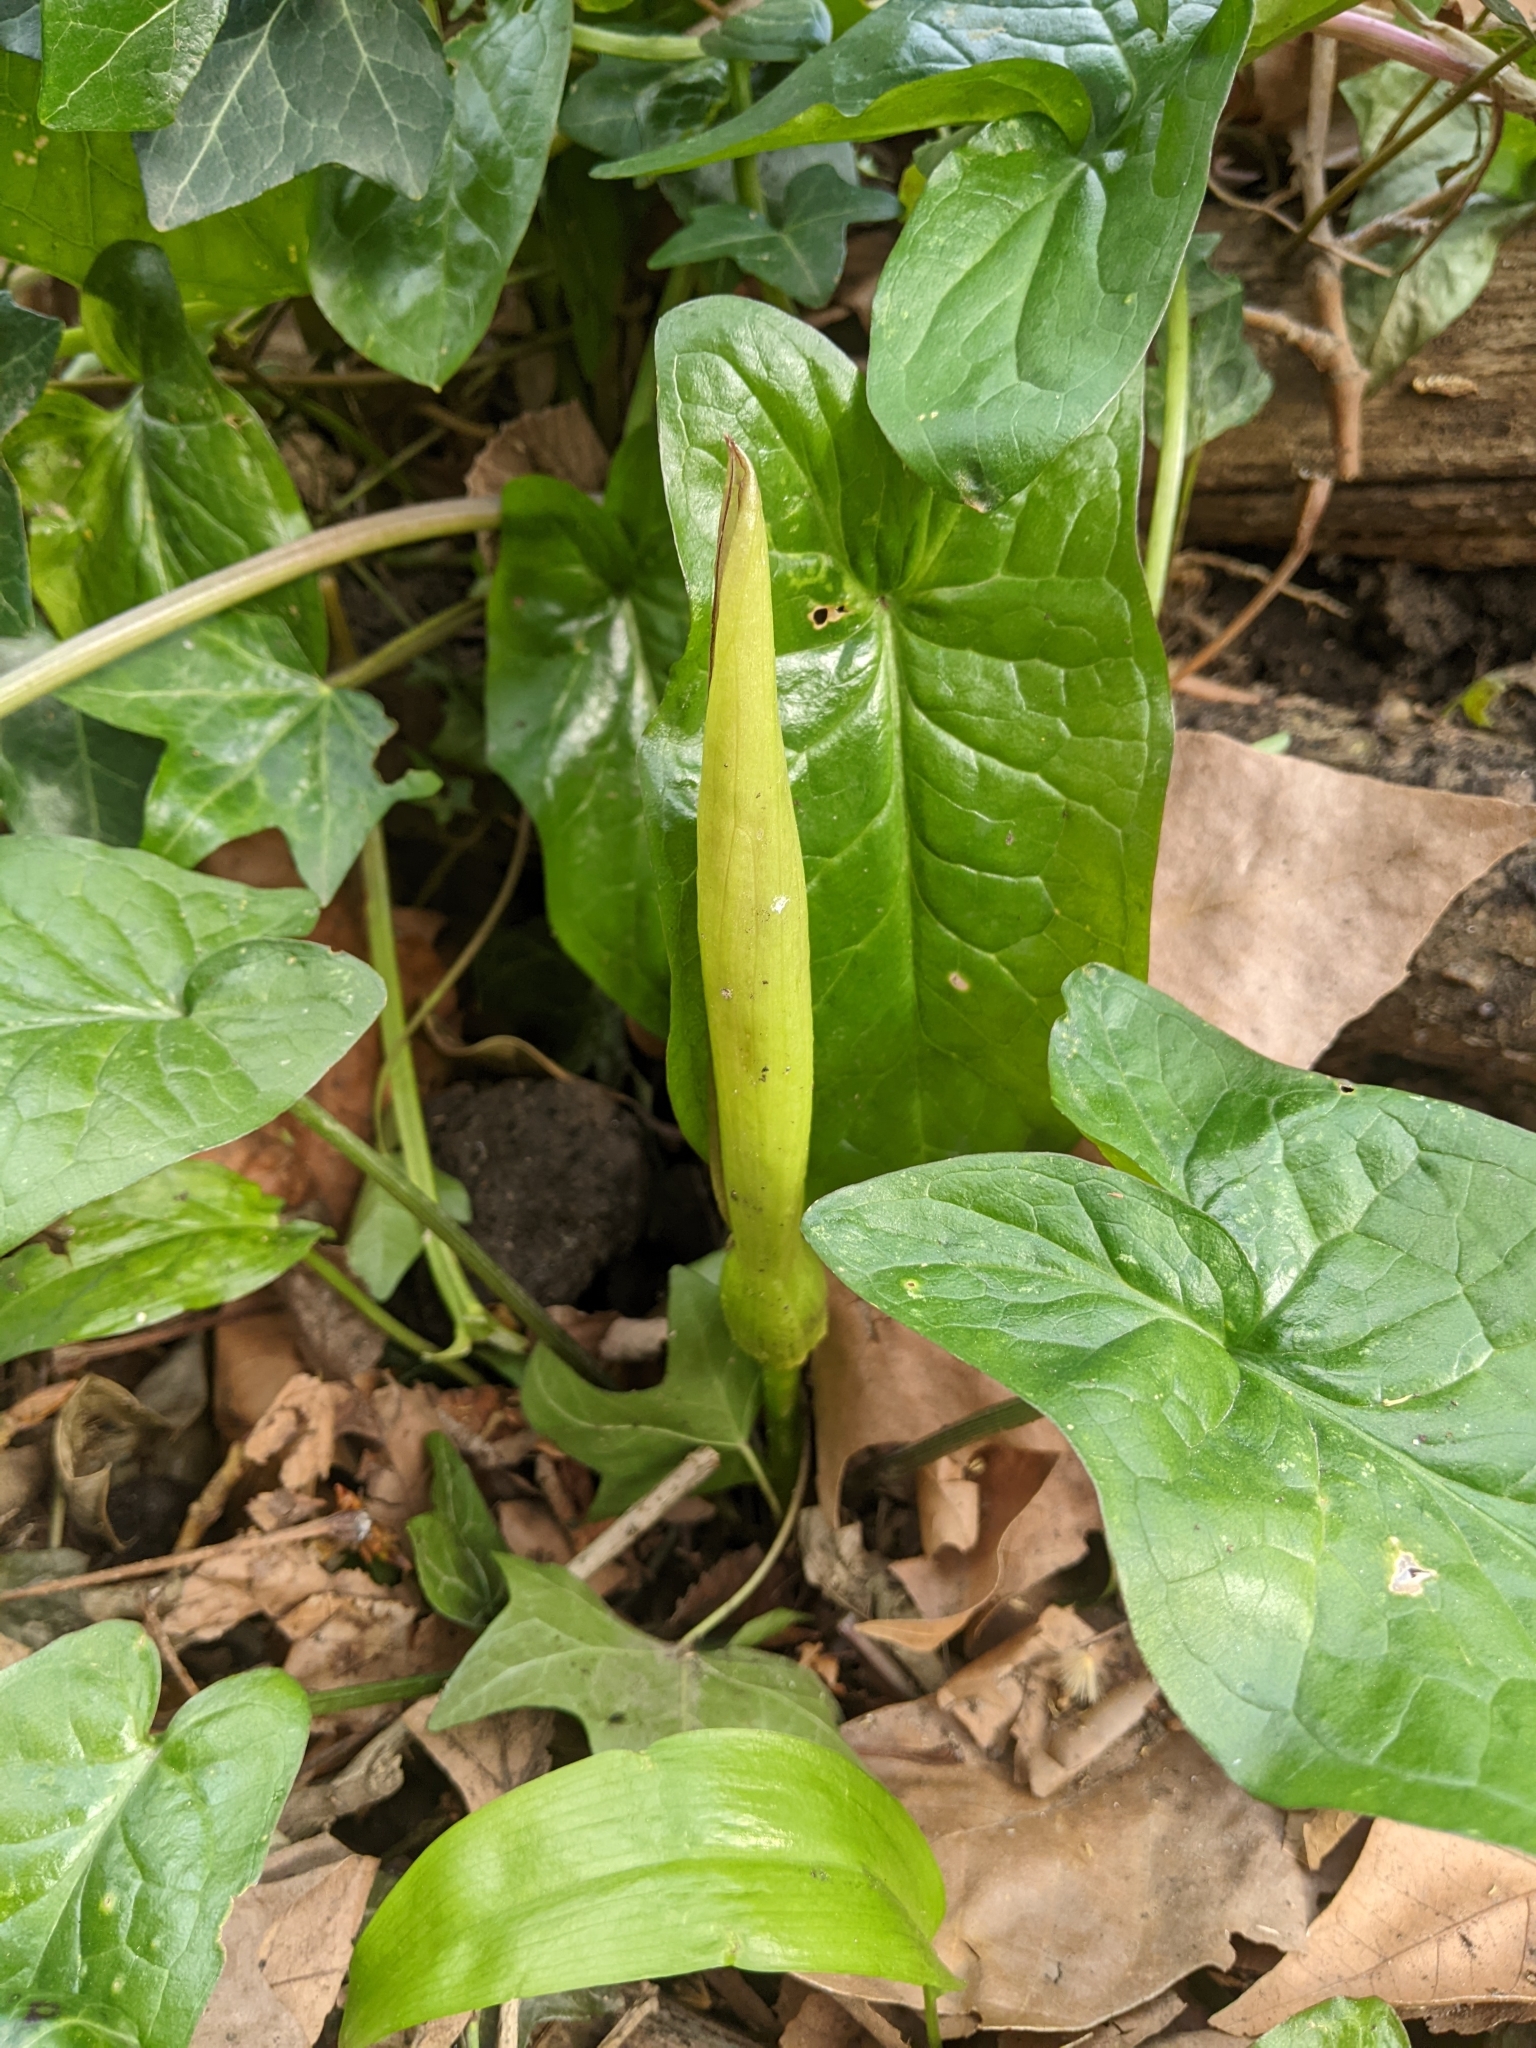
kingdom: Plantae
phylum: Tracheophyta
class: Liliopsida
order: Alismatales
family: Araceae
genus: Arum
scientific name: Arum maculatum
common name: Lords-and-ladies
